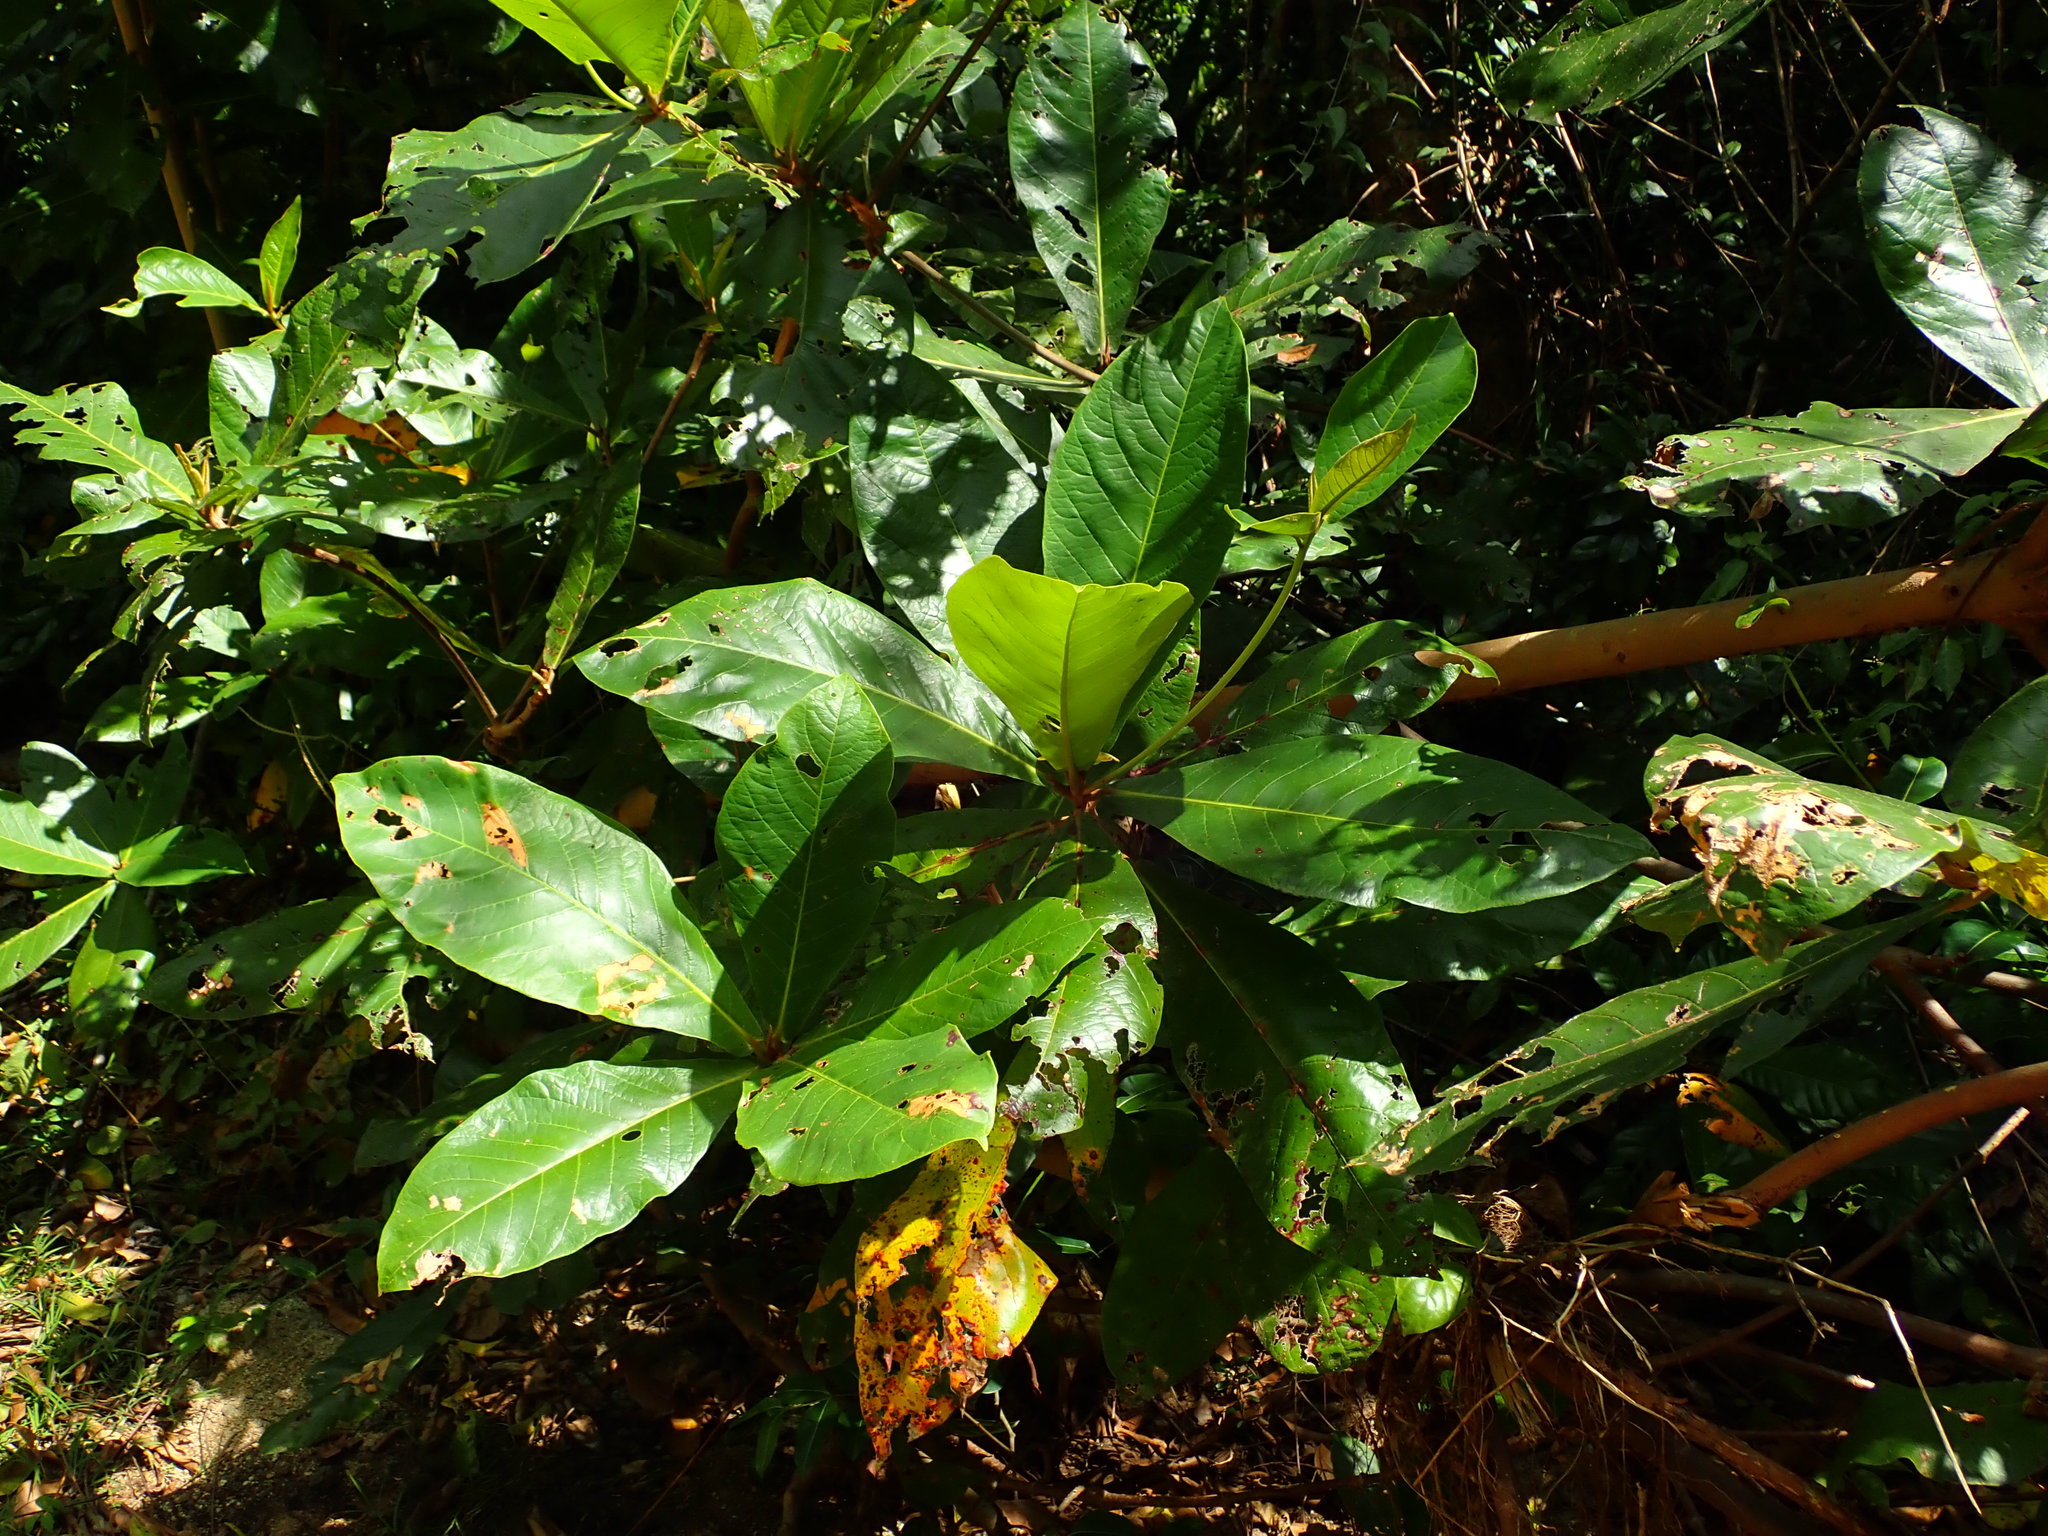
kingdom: Plantae
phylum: Tracheophyta
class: Magnoliopsida
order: Myrtales
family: Combretaceae
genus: Terminalia
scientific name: Terminalia catappa
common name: Tropical almond
